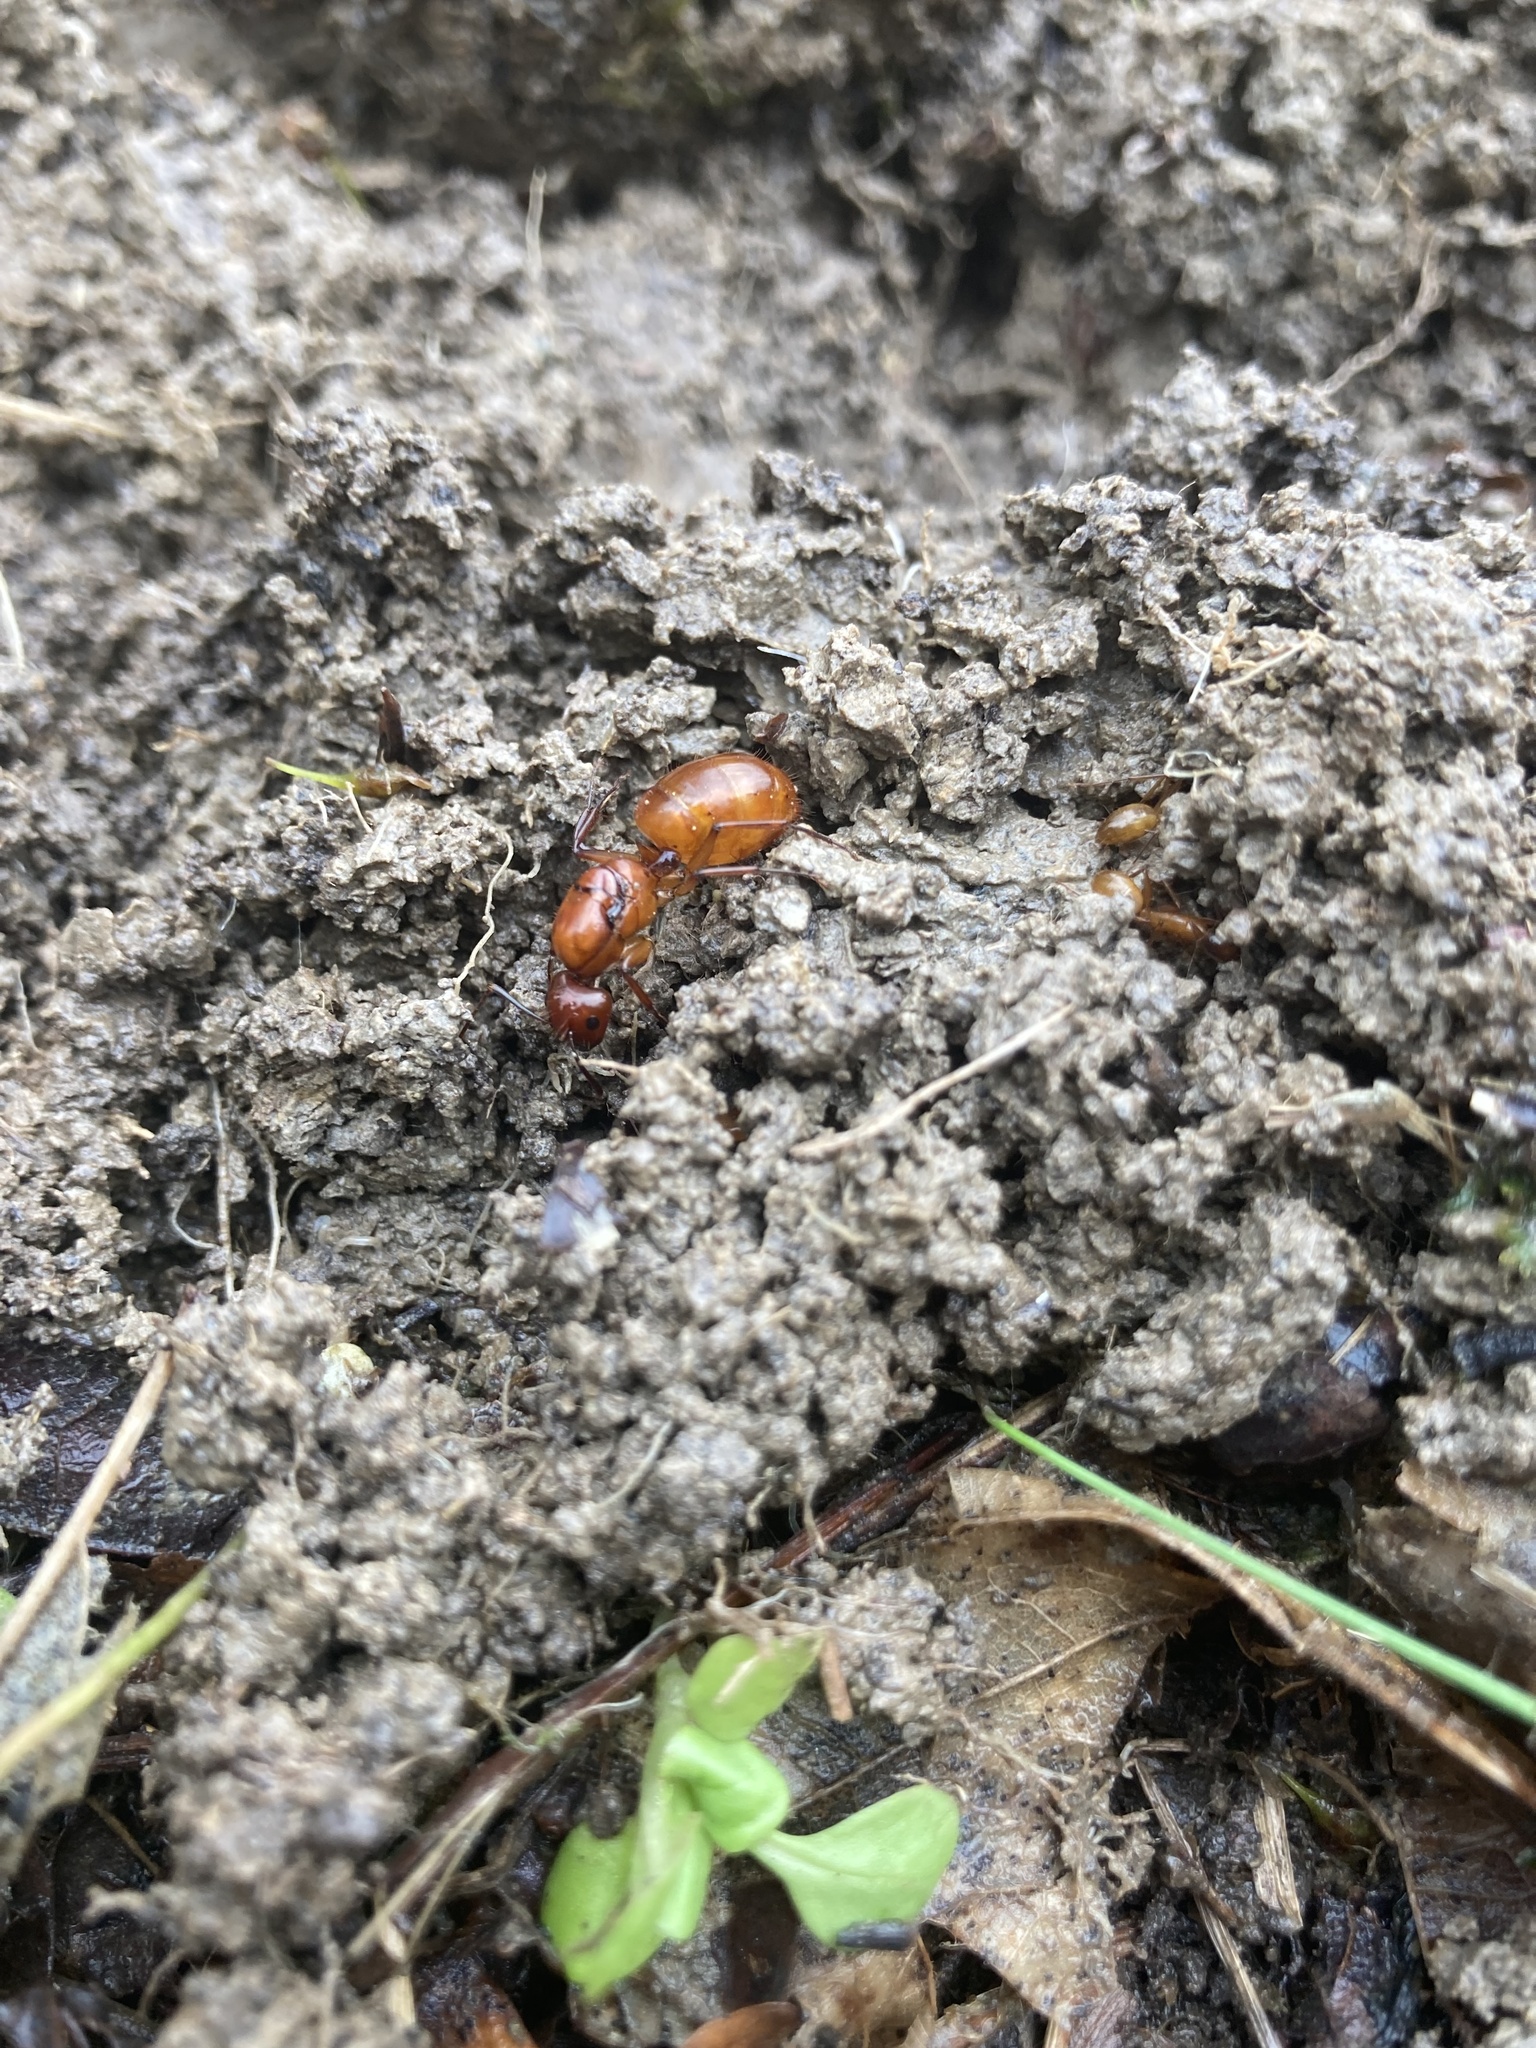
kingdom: Animalia
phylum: Arthropoda
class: Insecta
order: Hymenoptera
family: Formicidae
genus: Camponotus
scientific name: Camponotus castaneus
